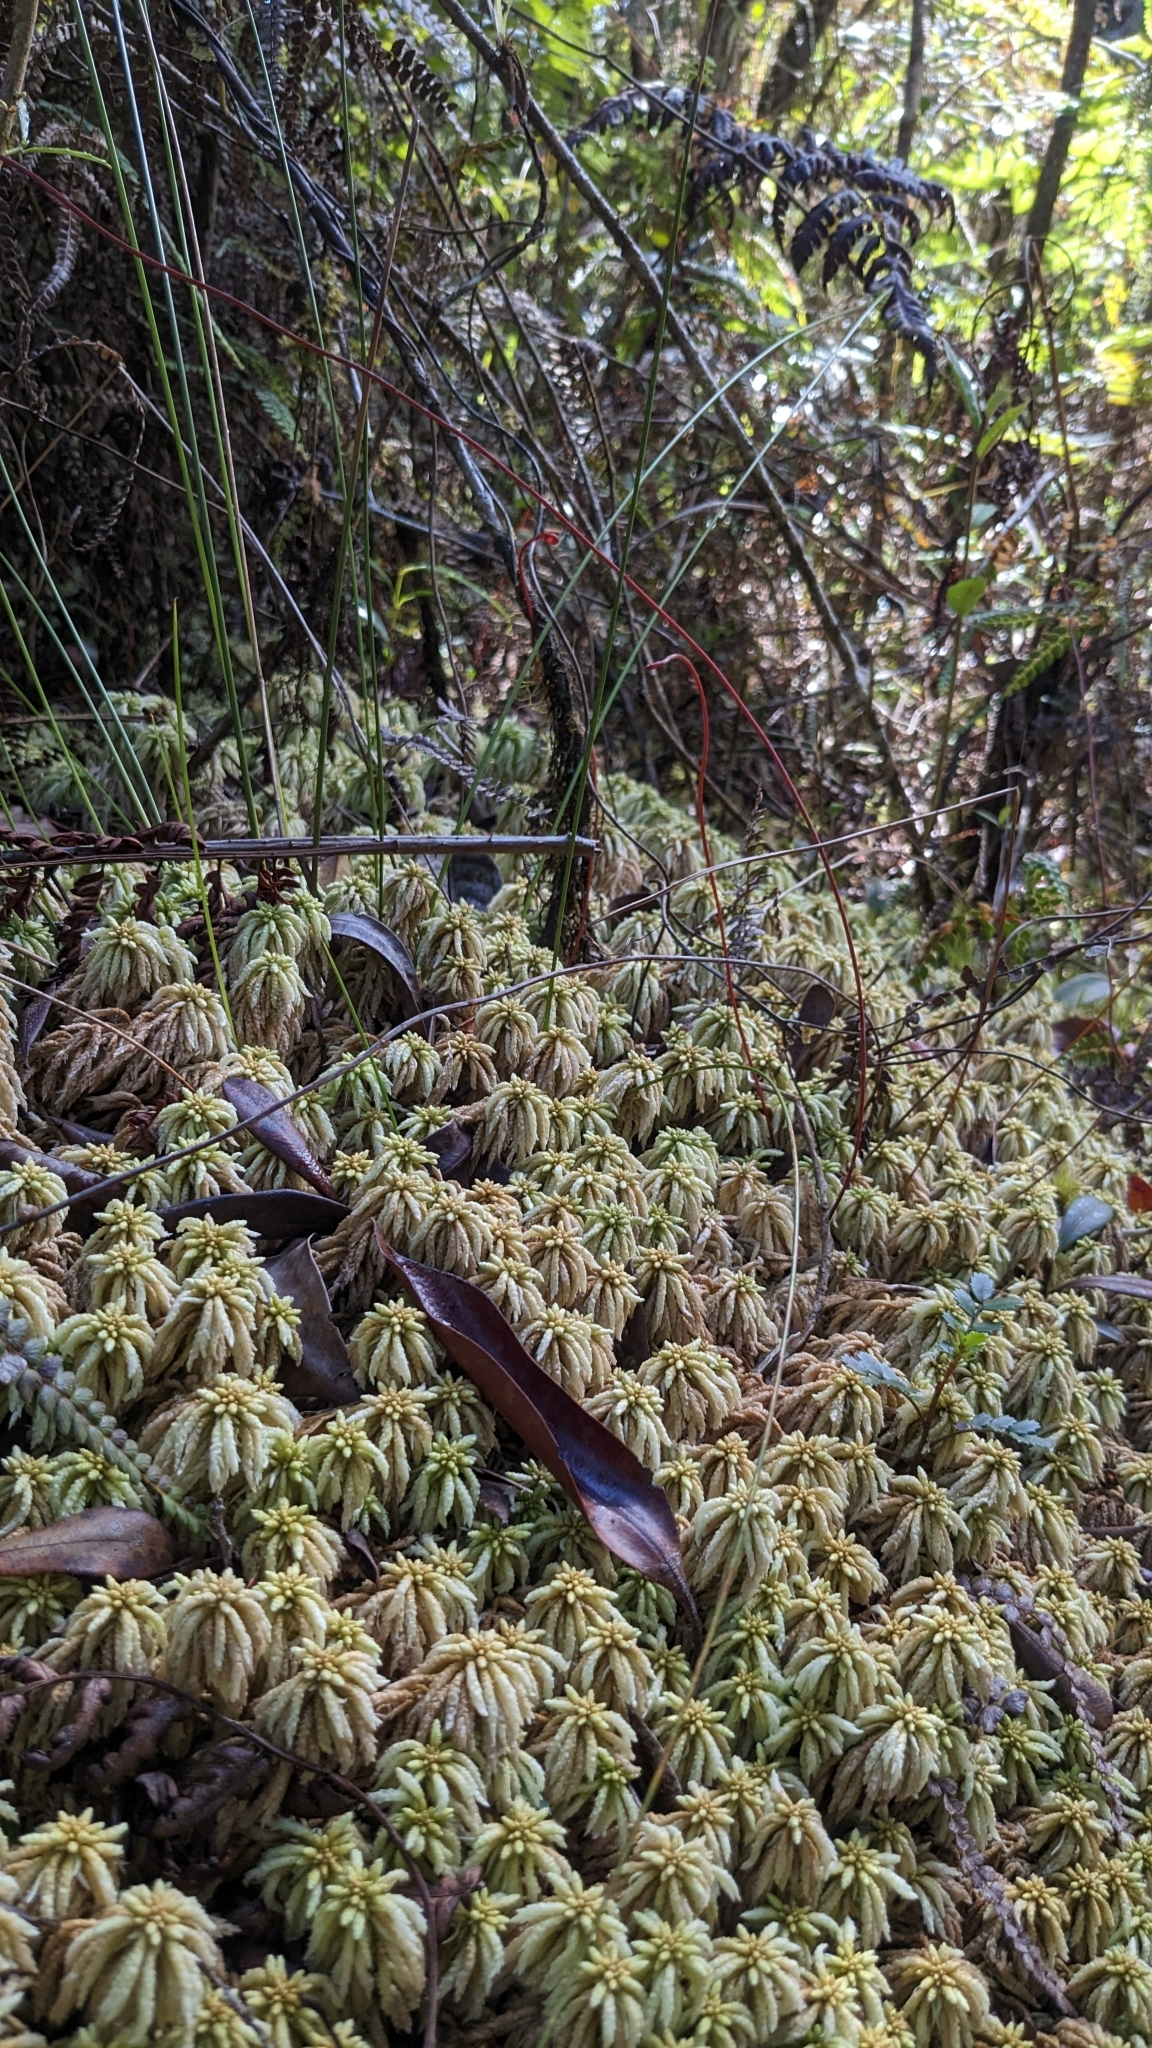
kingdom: Plantae
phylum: Bryophyta
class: Sphagnopsida
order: Sphagnales
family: Sphagnaceae
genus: Sphagnum
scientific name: Sphagnum portoricense
